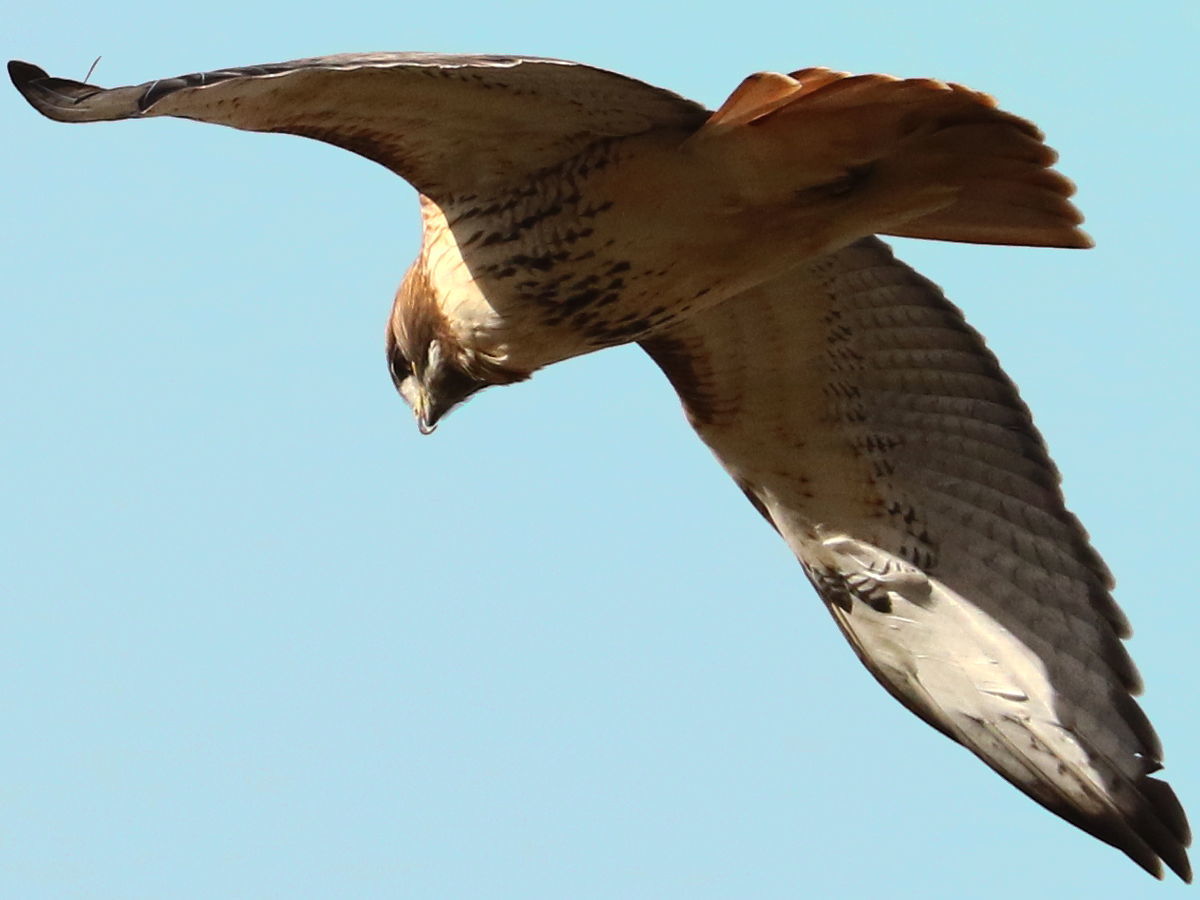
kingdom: Animalia
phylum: Chordata
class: Aves
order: Accipitriformes
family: Accipitridae
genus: Buteo
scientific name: Buteo jamaicensis
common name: Red-tailed hawk
